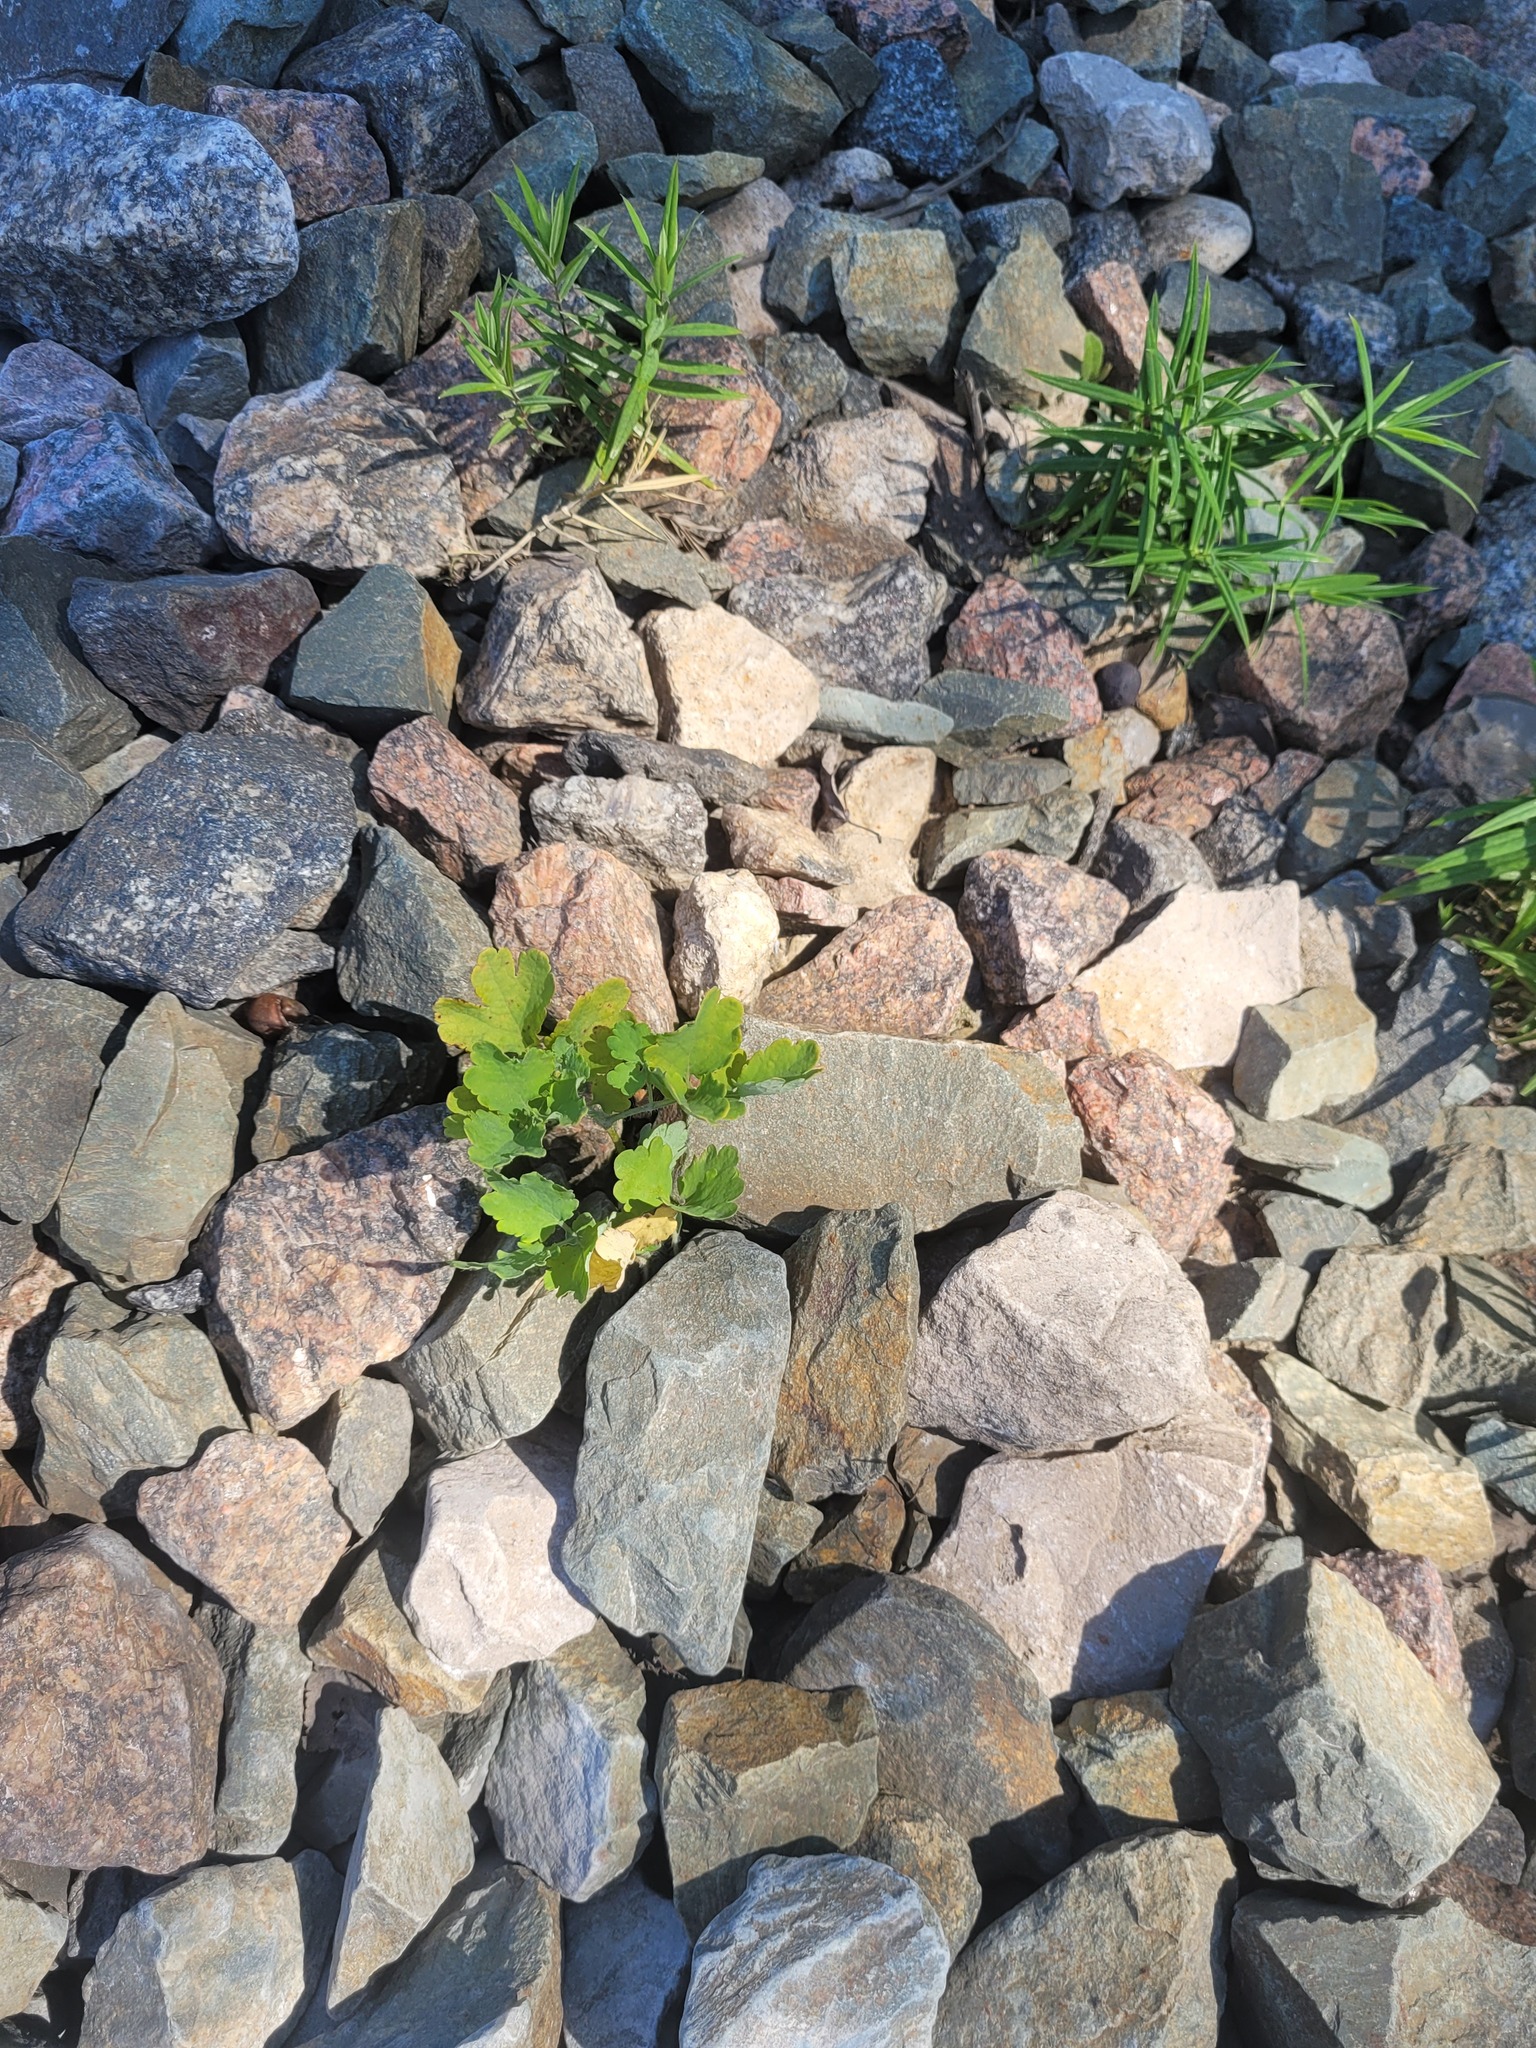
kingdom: Plantae
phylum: Tracheophyta
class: Magnoliopsida
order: Ranunculales
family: Papaveraceae
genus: Chelidonium
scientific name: Chelidonium majus
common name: Greater celandine
